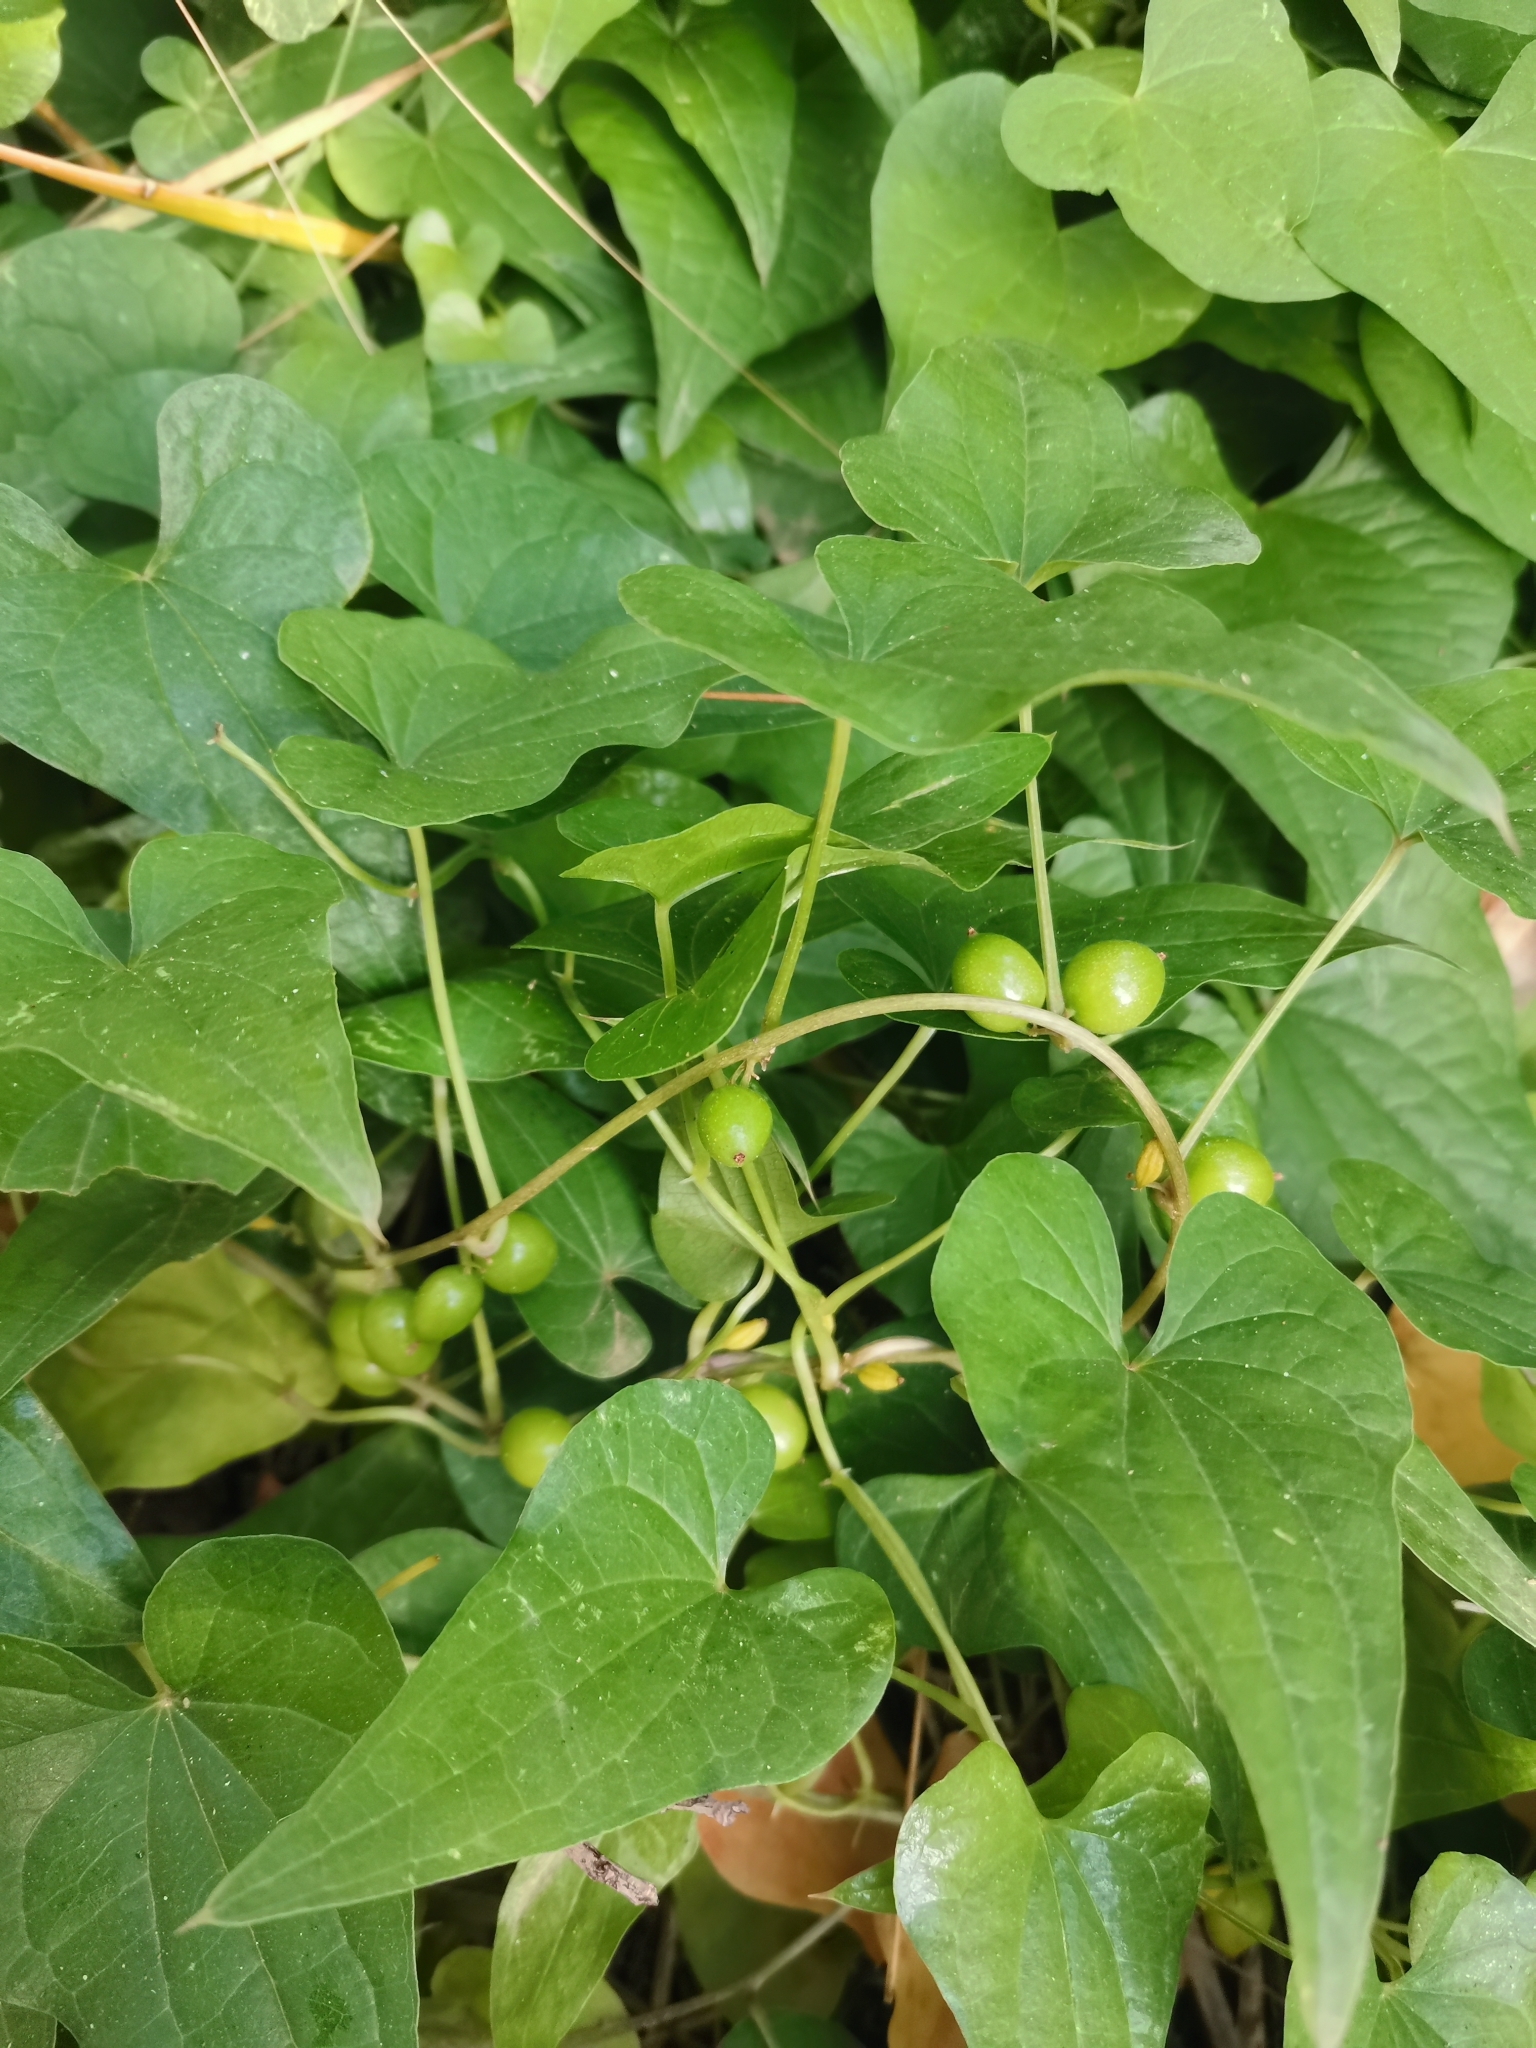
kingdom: Plantae
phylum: Tracheophyta
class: Liliopsida
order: Dioscoreales
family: Dioscoreaceae
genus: Dioscorea
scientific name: Dioscorea communis
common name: Black-bindweed
